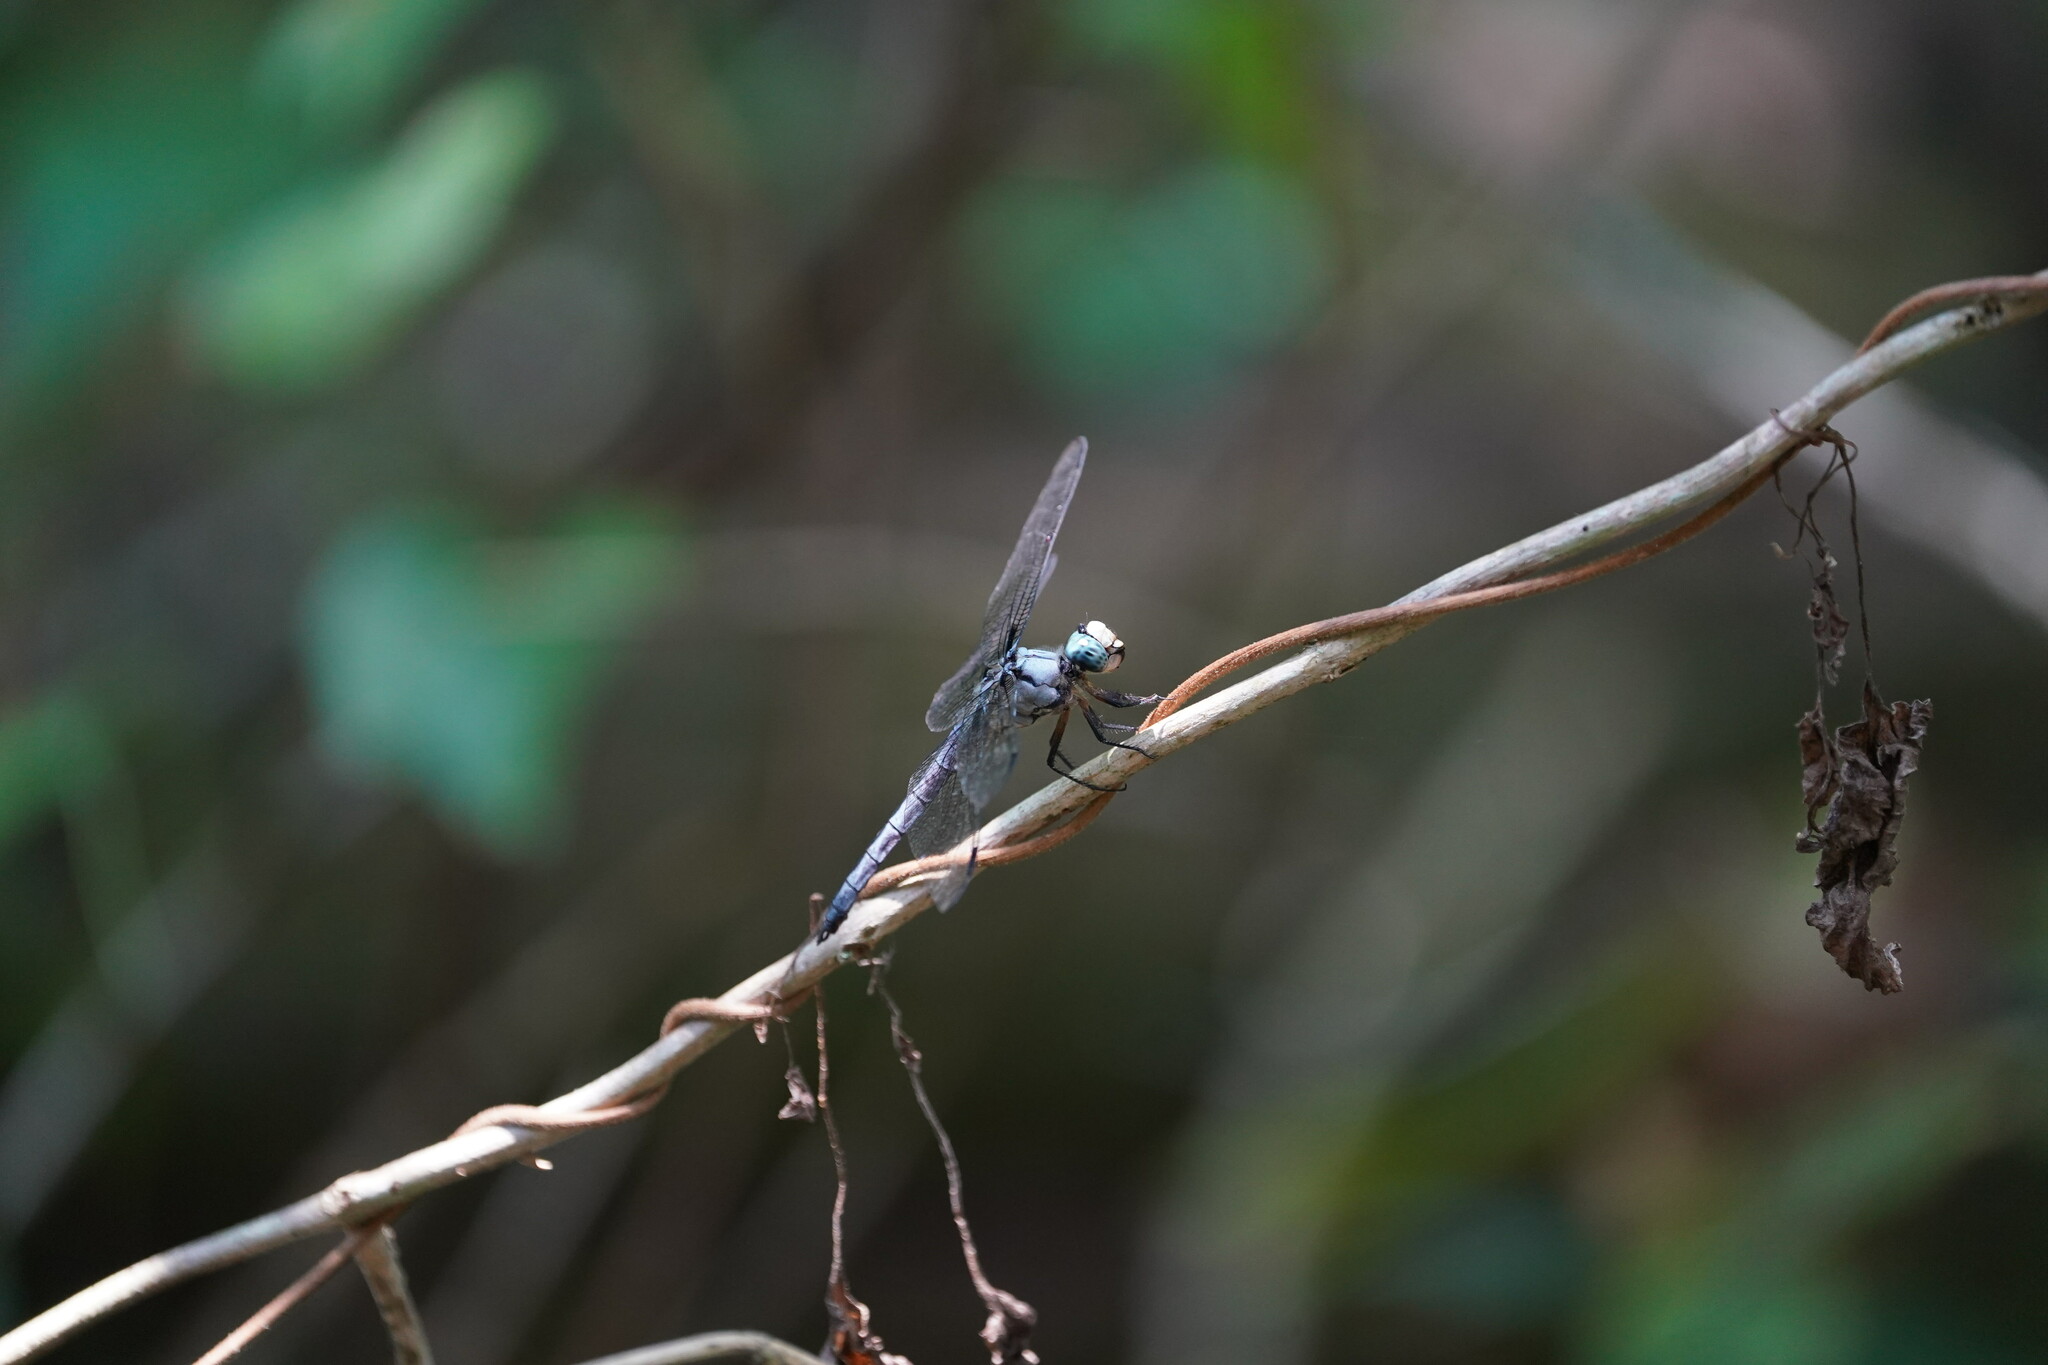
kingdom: Animalia
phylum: Arthropoda
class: Insecta
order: Odonata
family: Libellulidae
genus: Libellula
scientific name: Libellula vibrans
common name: Great blue skimmer
